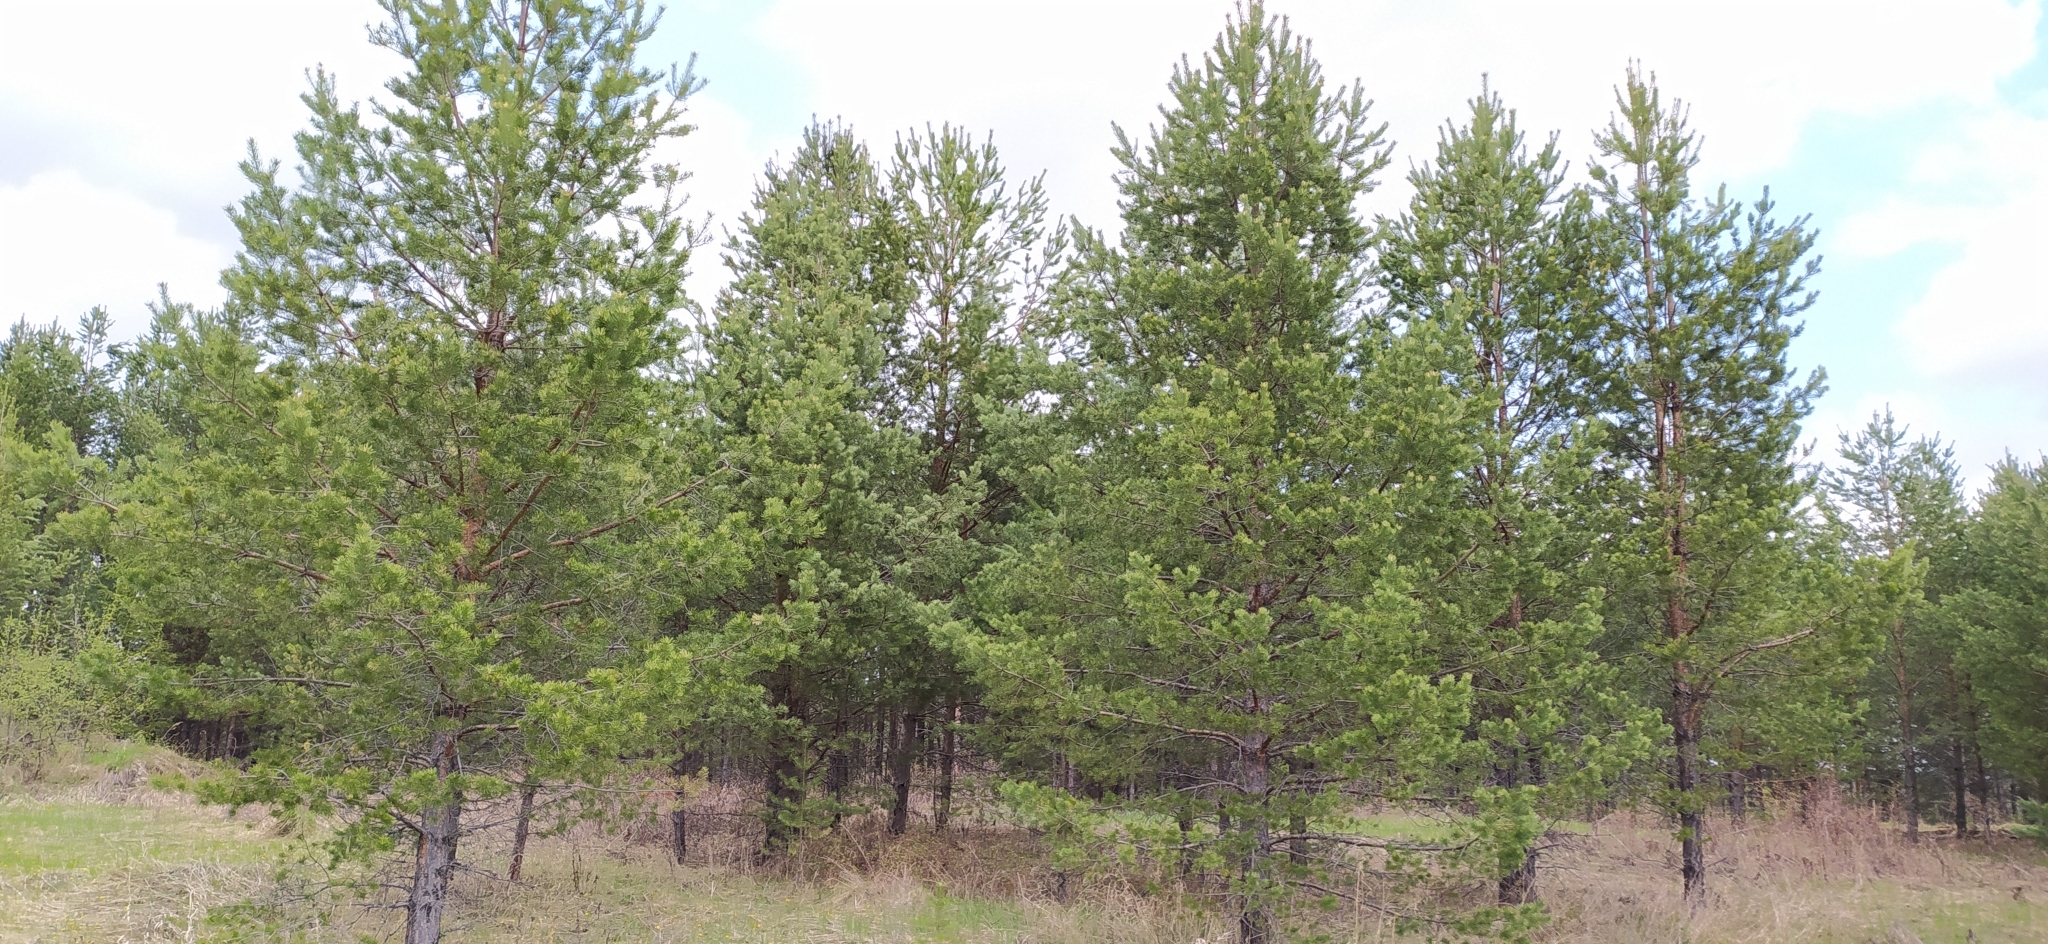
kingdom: Plantae
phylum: Tracheophyta
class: Pinopsida
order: Pinales
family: Pinaceae
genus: Pinus
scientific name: Pinus sylvestris
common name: Scots pine
